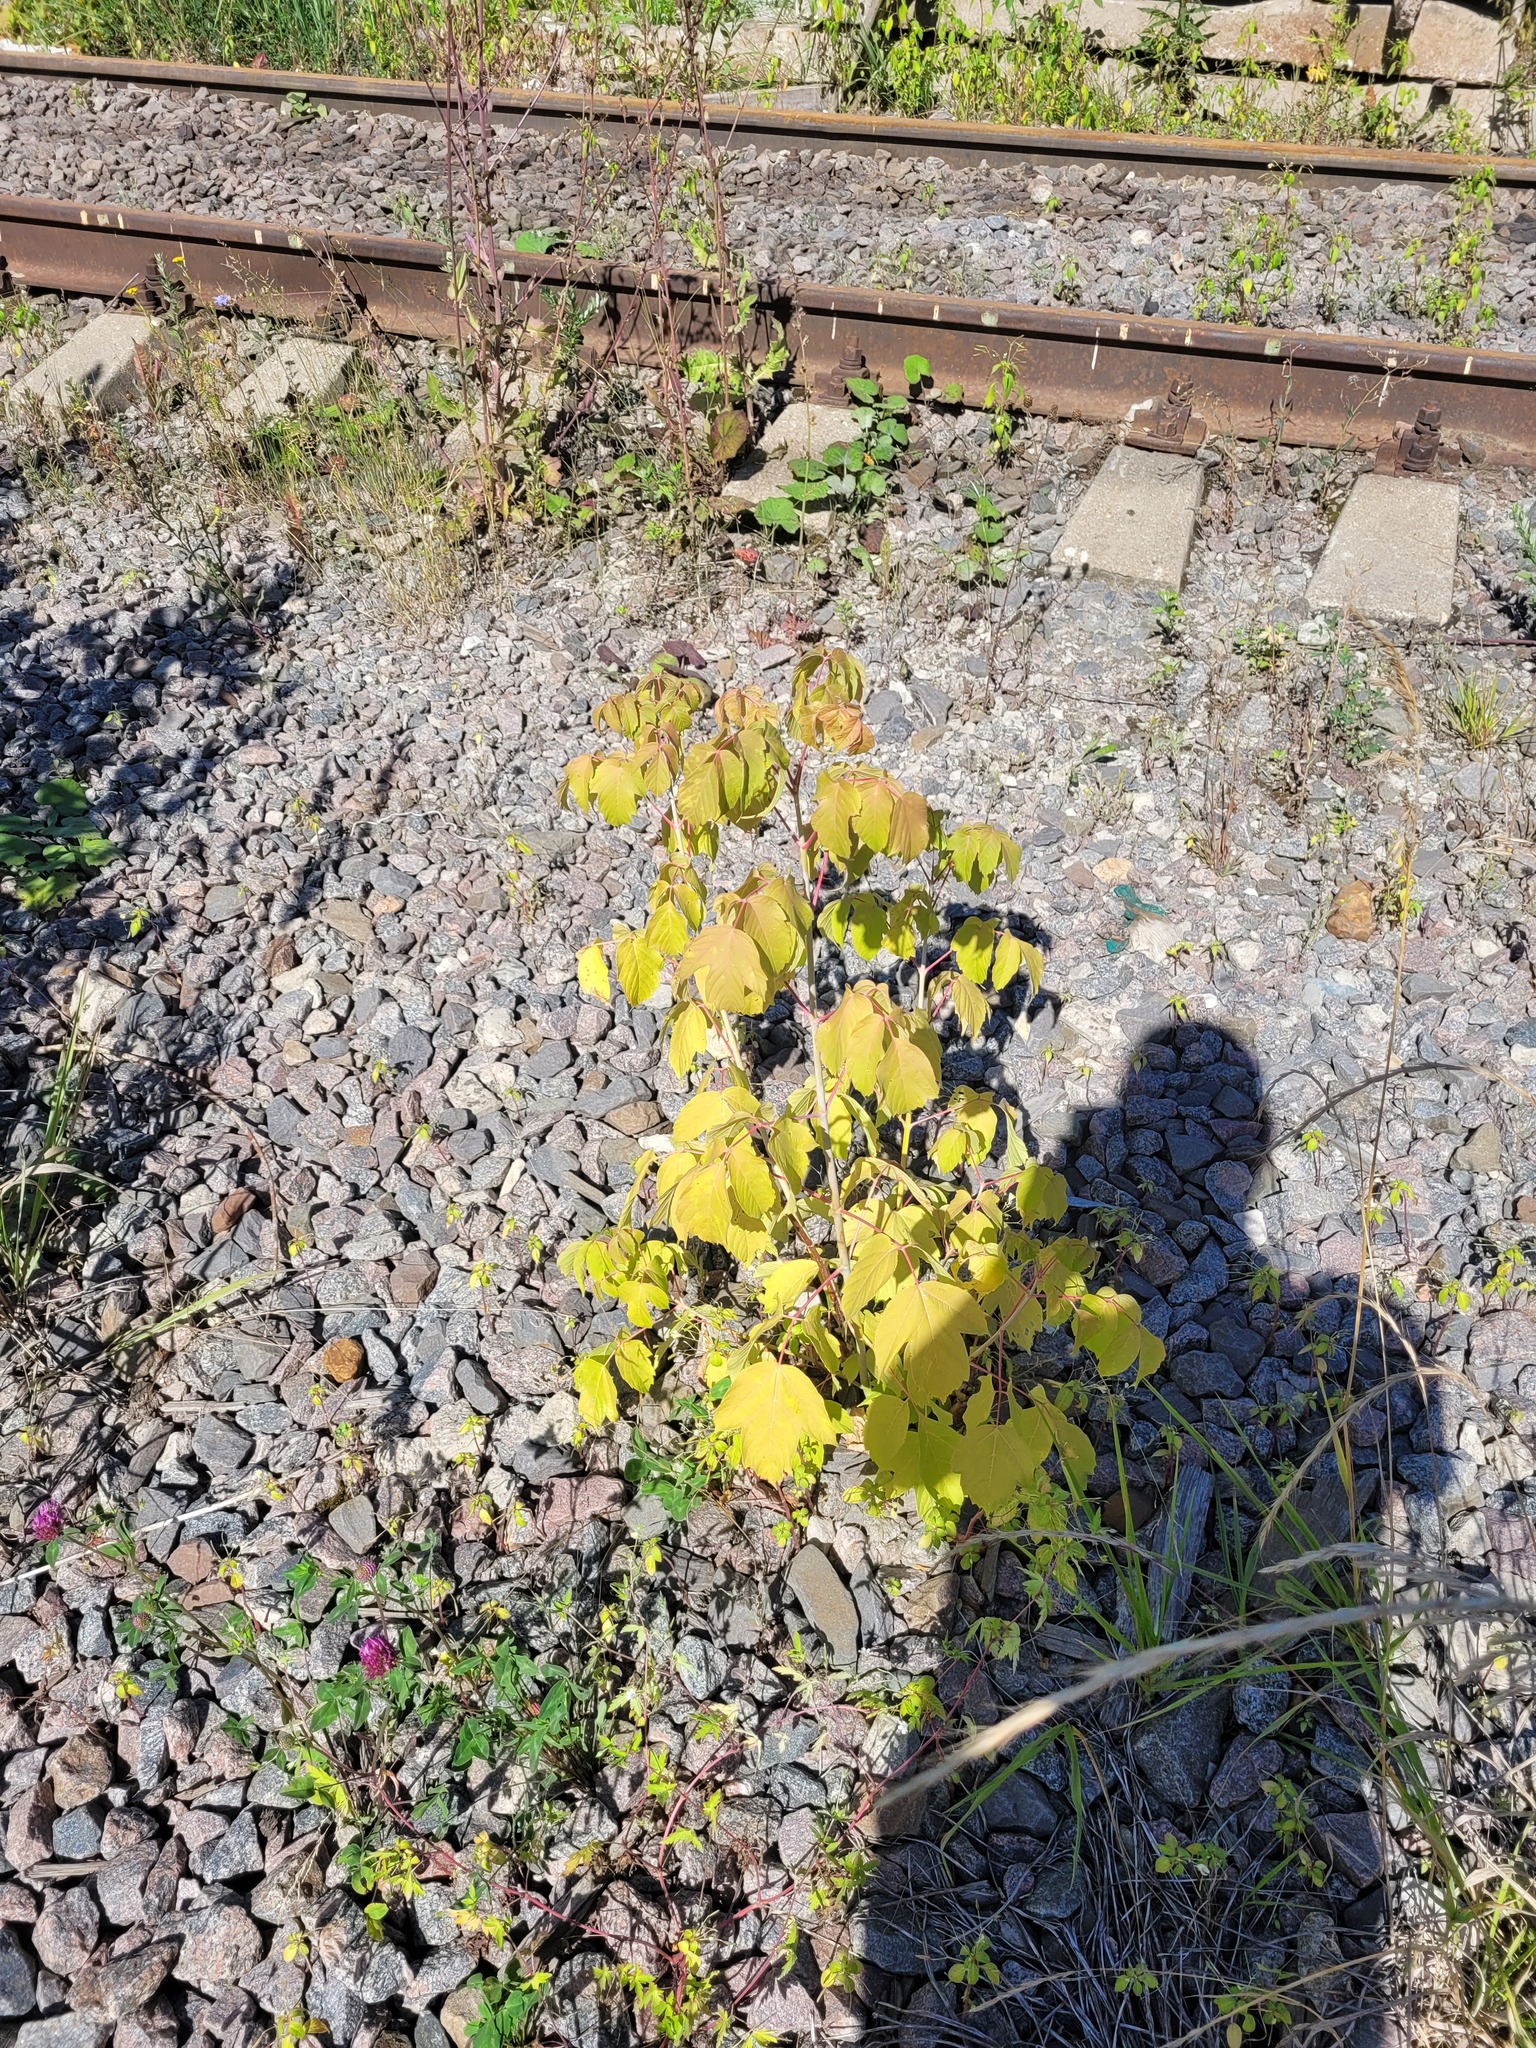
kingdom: Plantae
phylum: Tracheophyta
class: Magnoliopsida
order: Sapindales
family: Sapindaceae
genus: Acer
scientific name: Acer negundo
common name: Ashleaf maple
